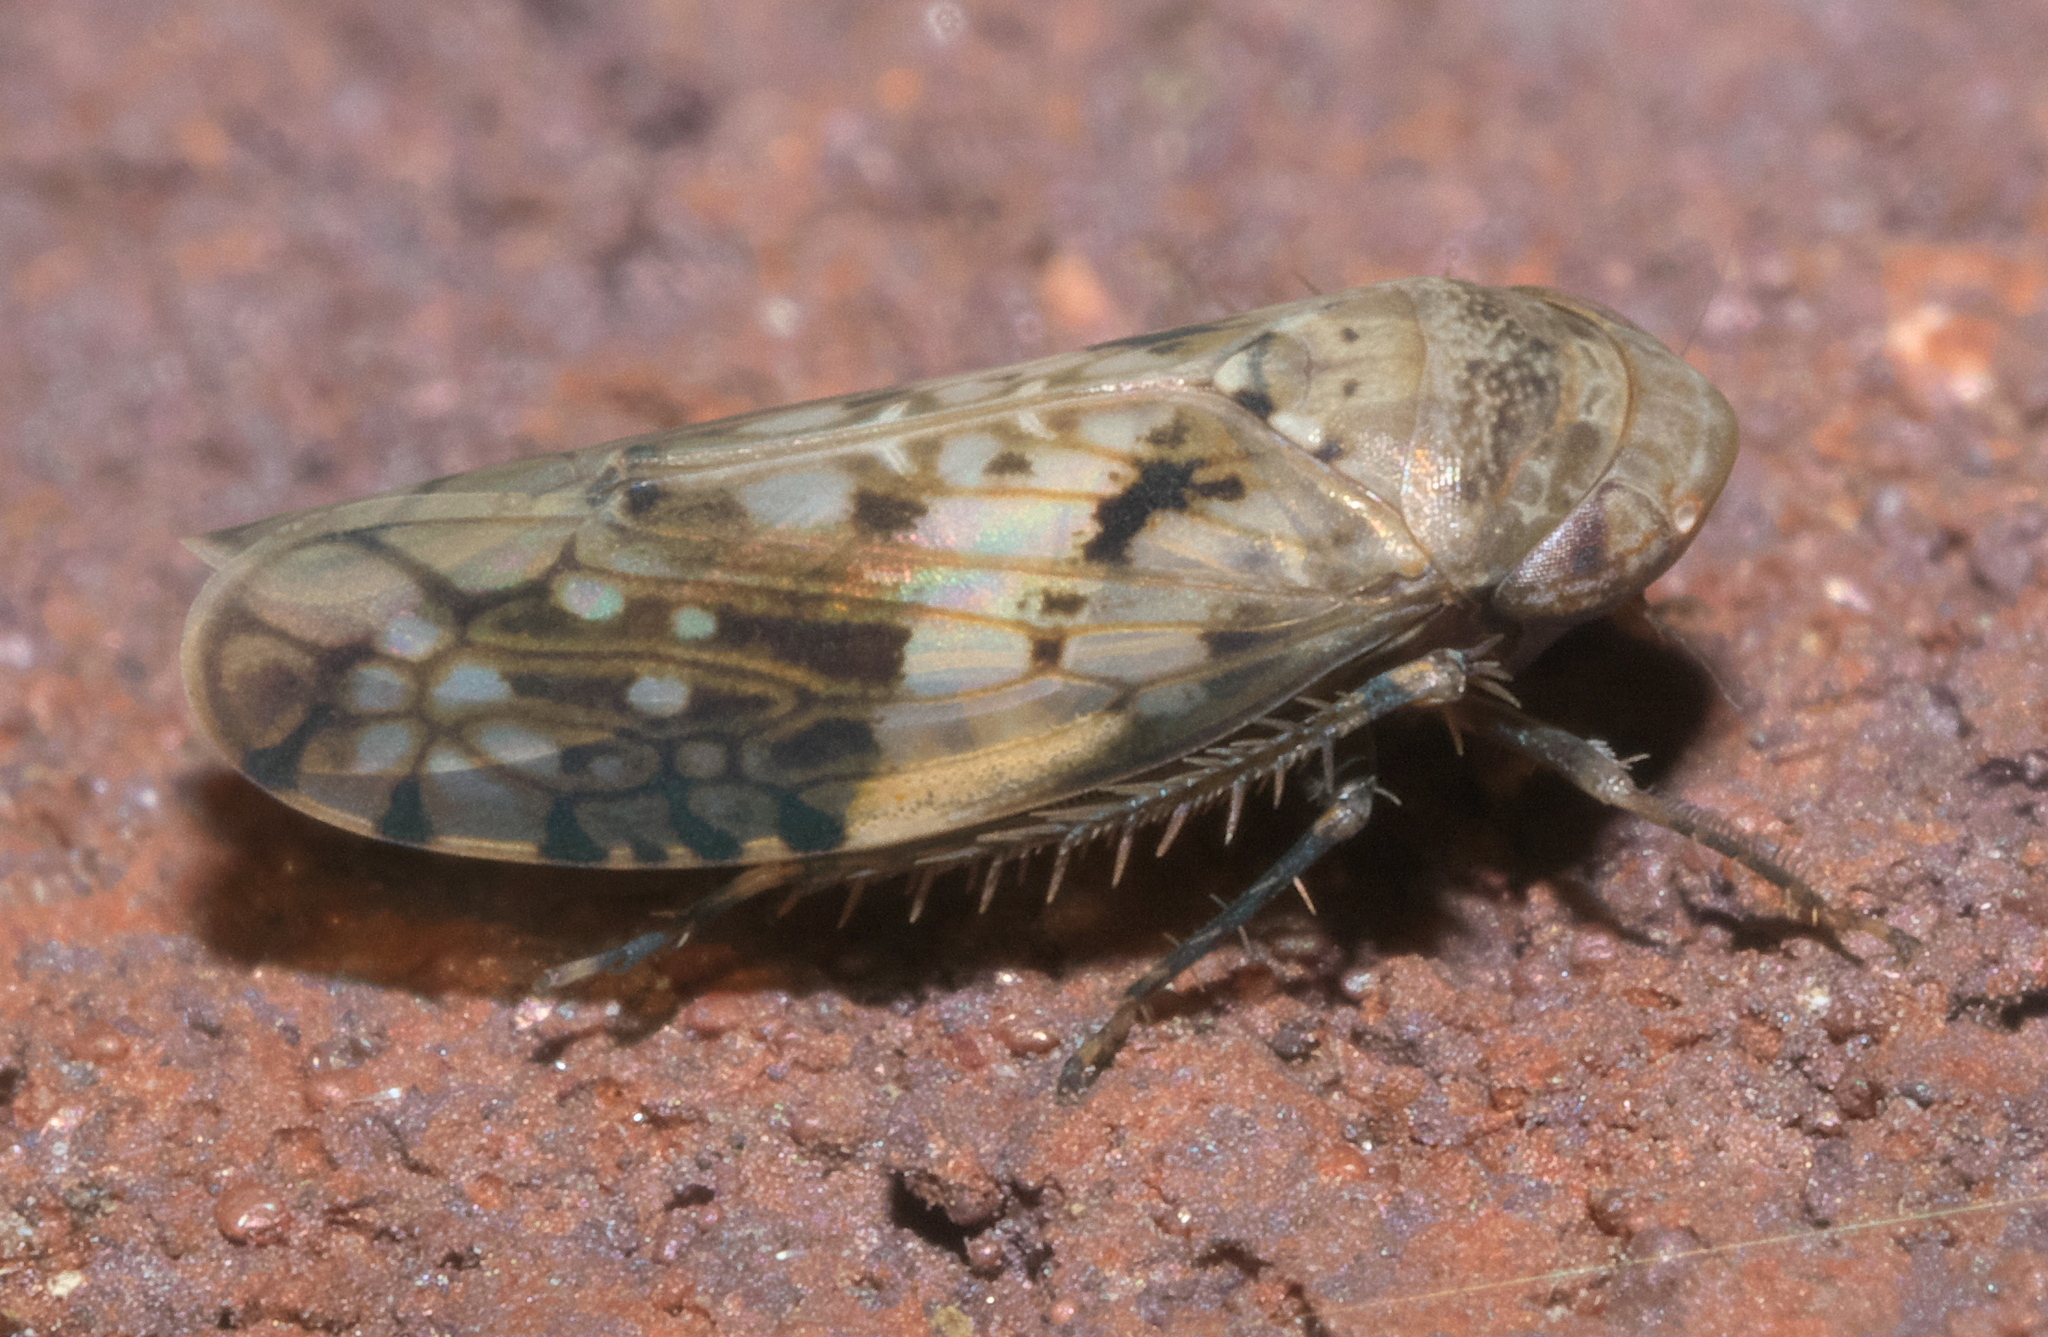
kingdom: Animalia
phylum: Arthropoda
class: Insecta
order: Hemiptera
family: Cicadellidae
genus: Menosoma
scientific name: Menosoma cinctum
